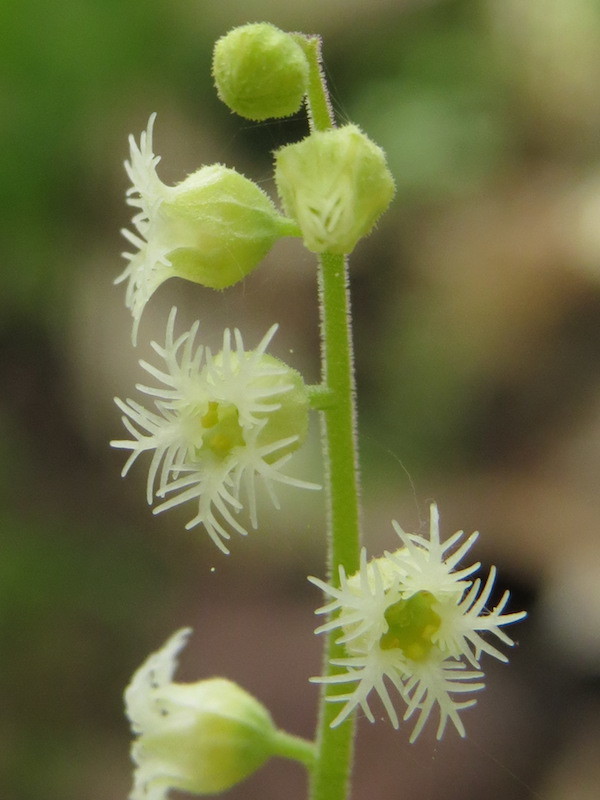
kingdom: Plantae
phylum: Tracheophyta
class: Magnoliopsida
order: Saxifragales
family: Saxifragaceae
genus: Mitella
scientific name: Mitella diphylla
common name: Coolwort
